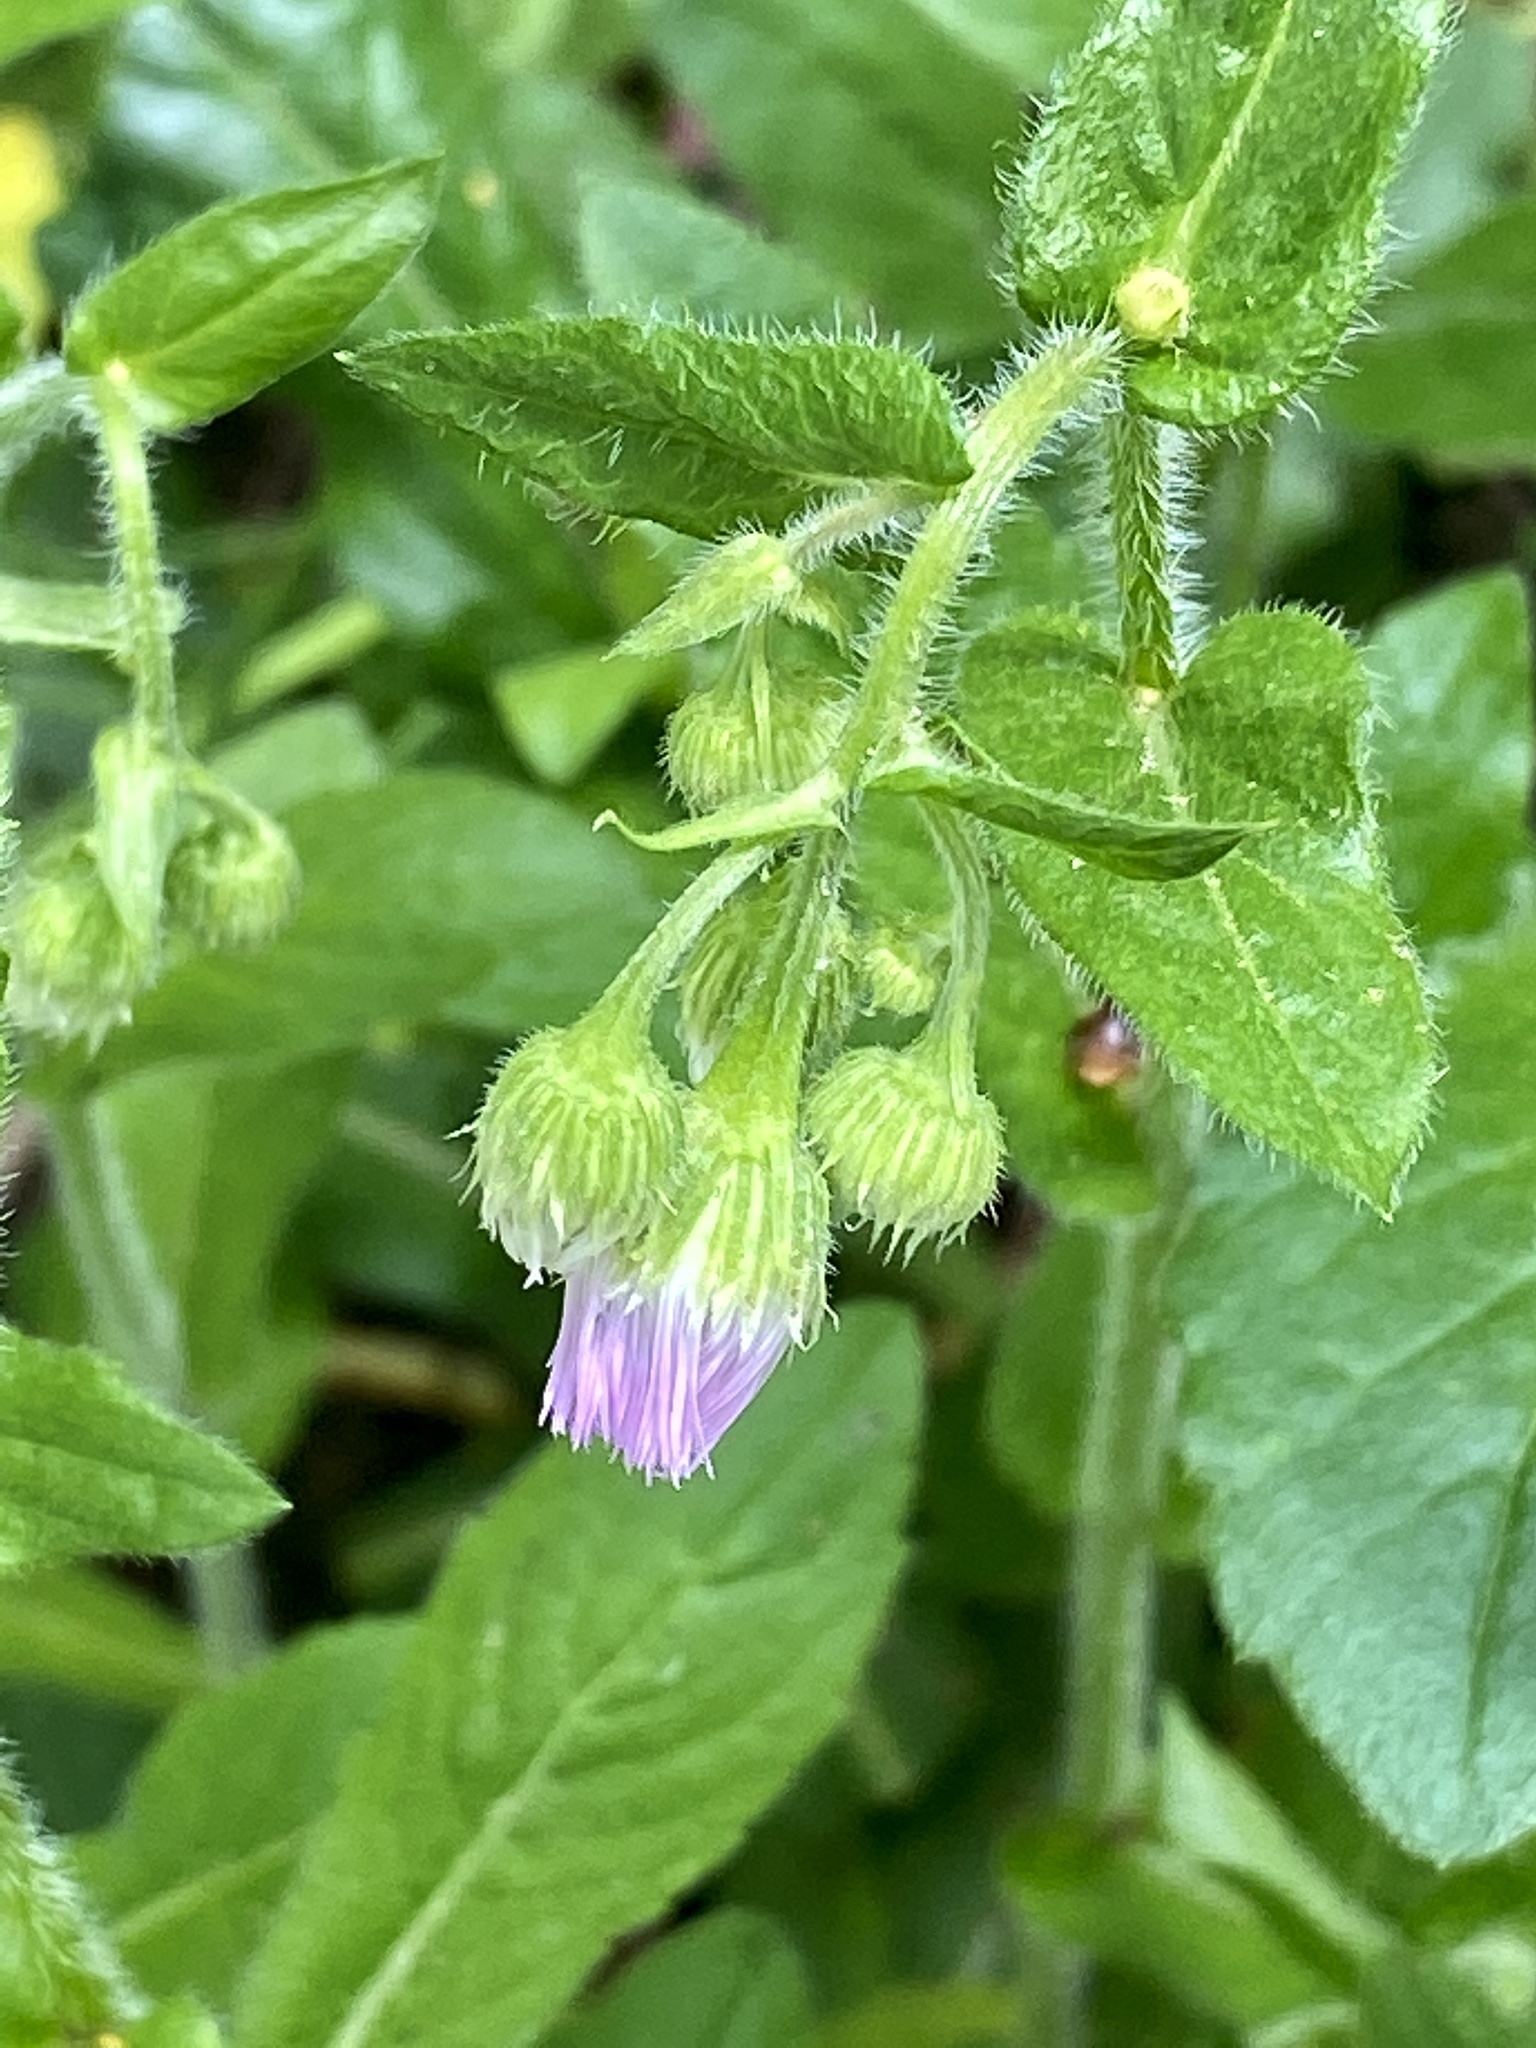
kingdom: Plantae
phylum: Tracheophyta
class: Magnoliopsida
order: Asterales
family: Asteraceae
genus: Erigeron
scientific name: Erigeron philadelphicus
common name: Robin's-plantain
